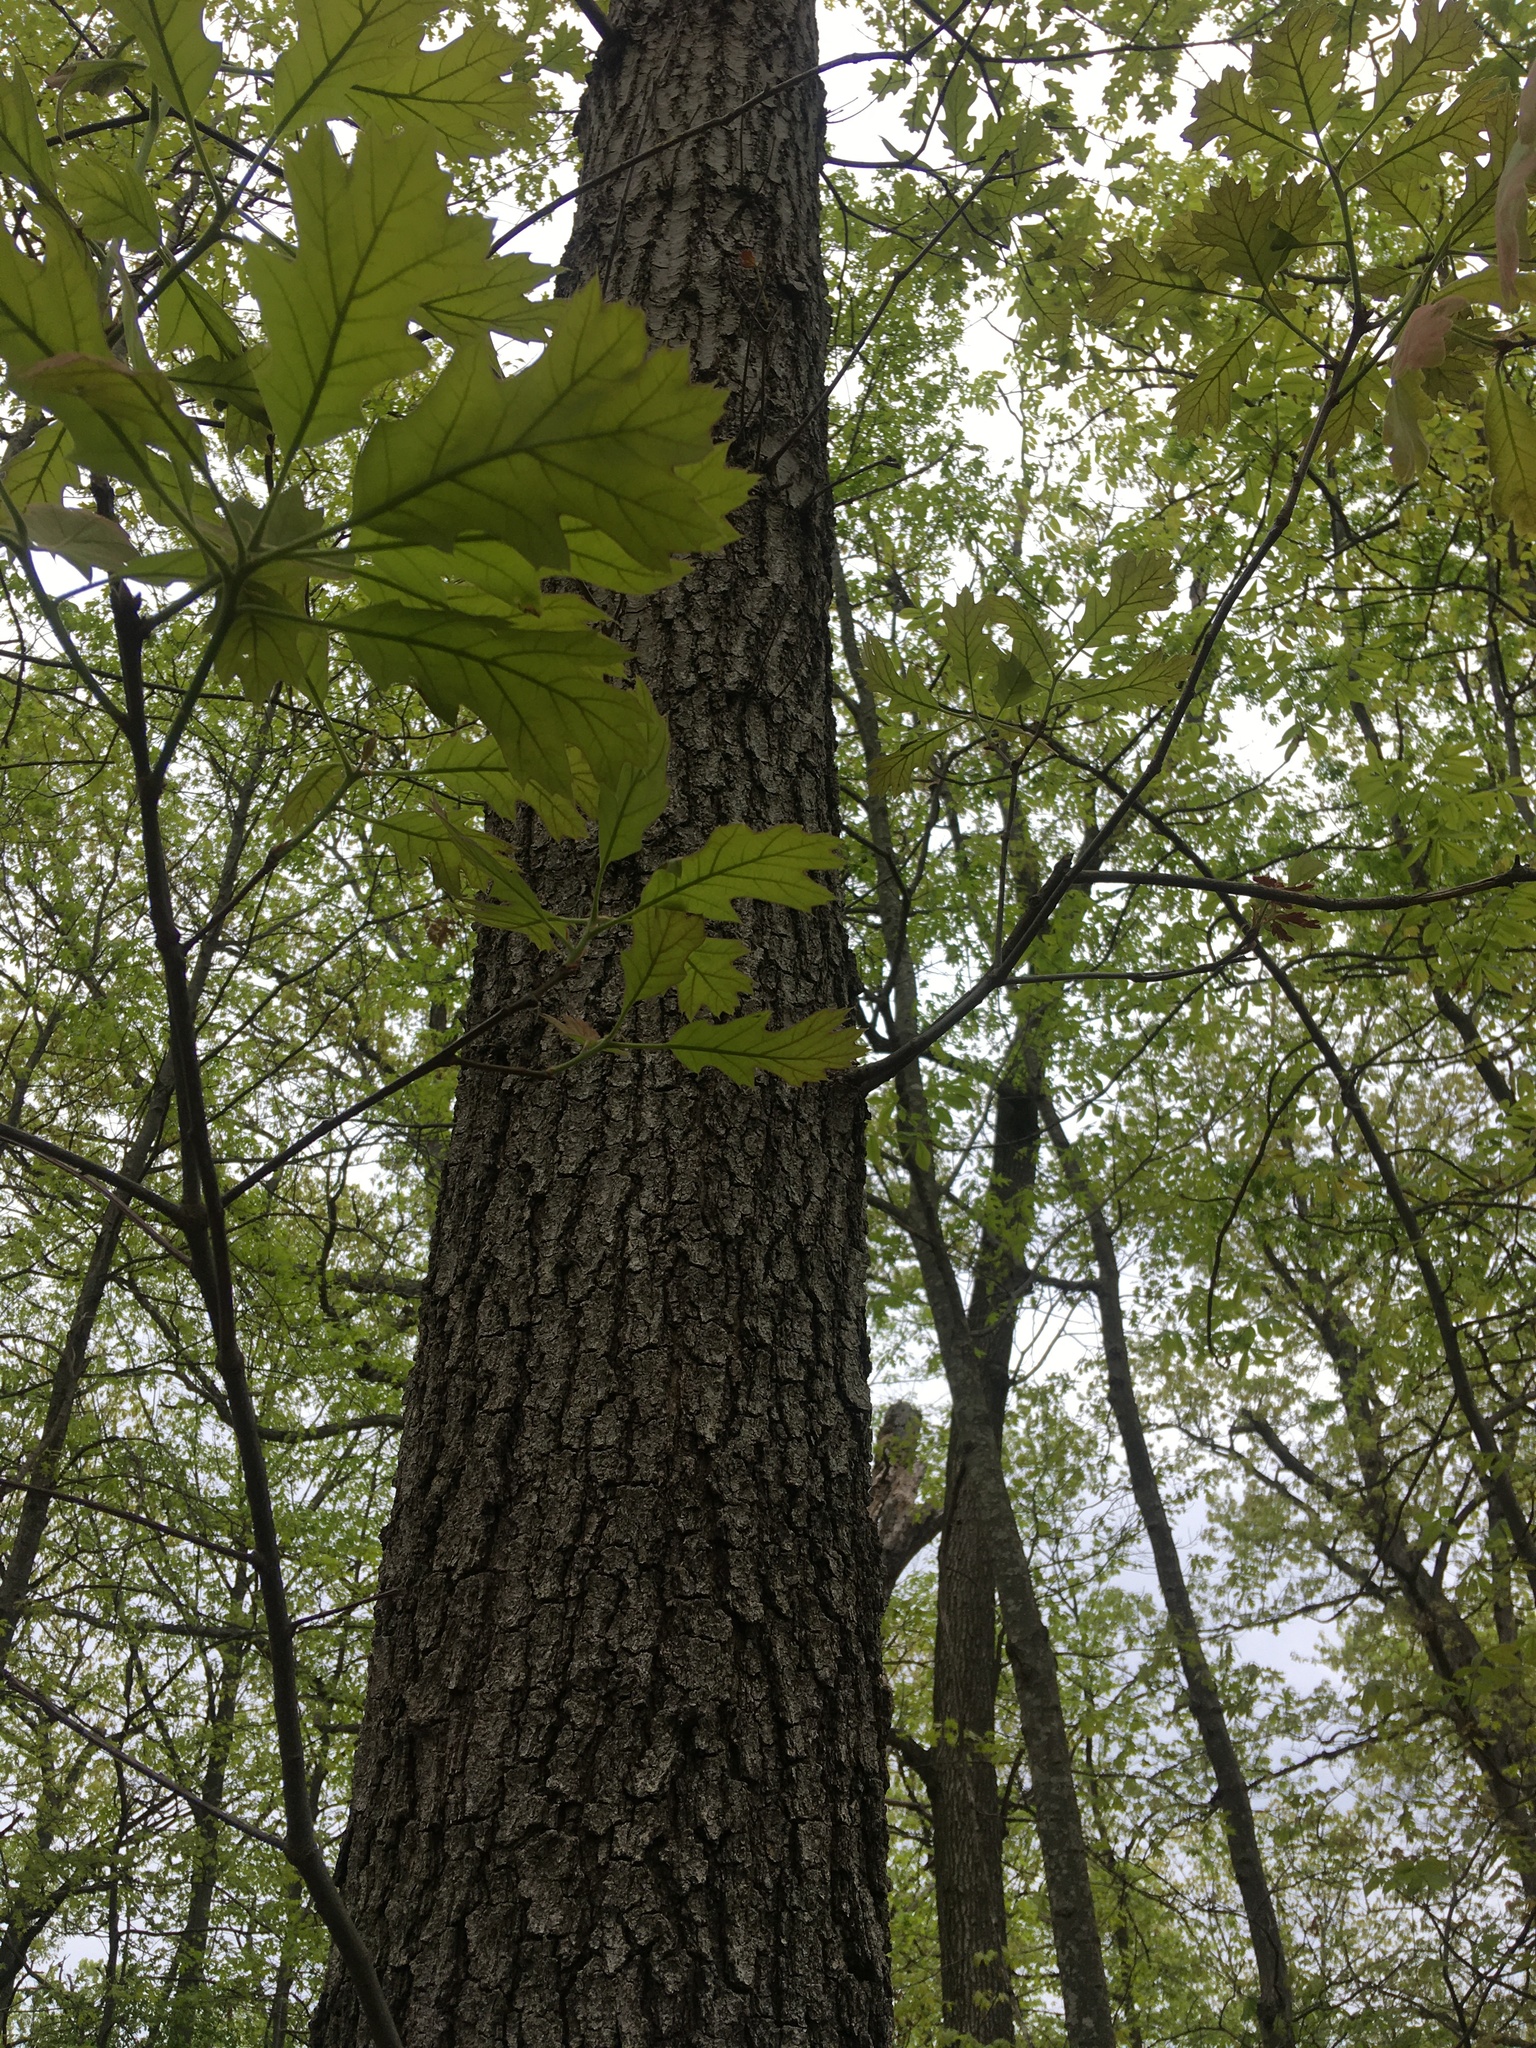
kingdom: Plantae
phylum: Tracheophyta
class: Magnoliopsida
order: Fagales
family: Fagaceae
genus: Quercus
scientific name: Quercus velutina
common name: Black oak
